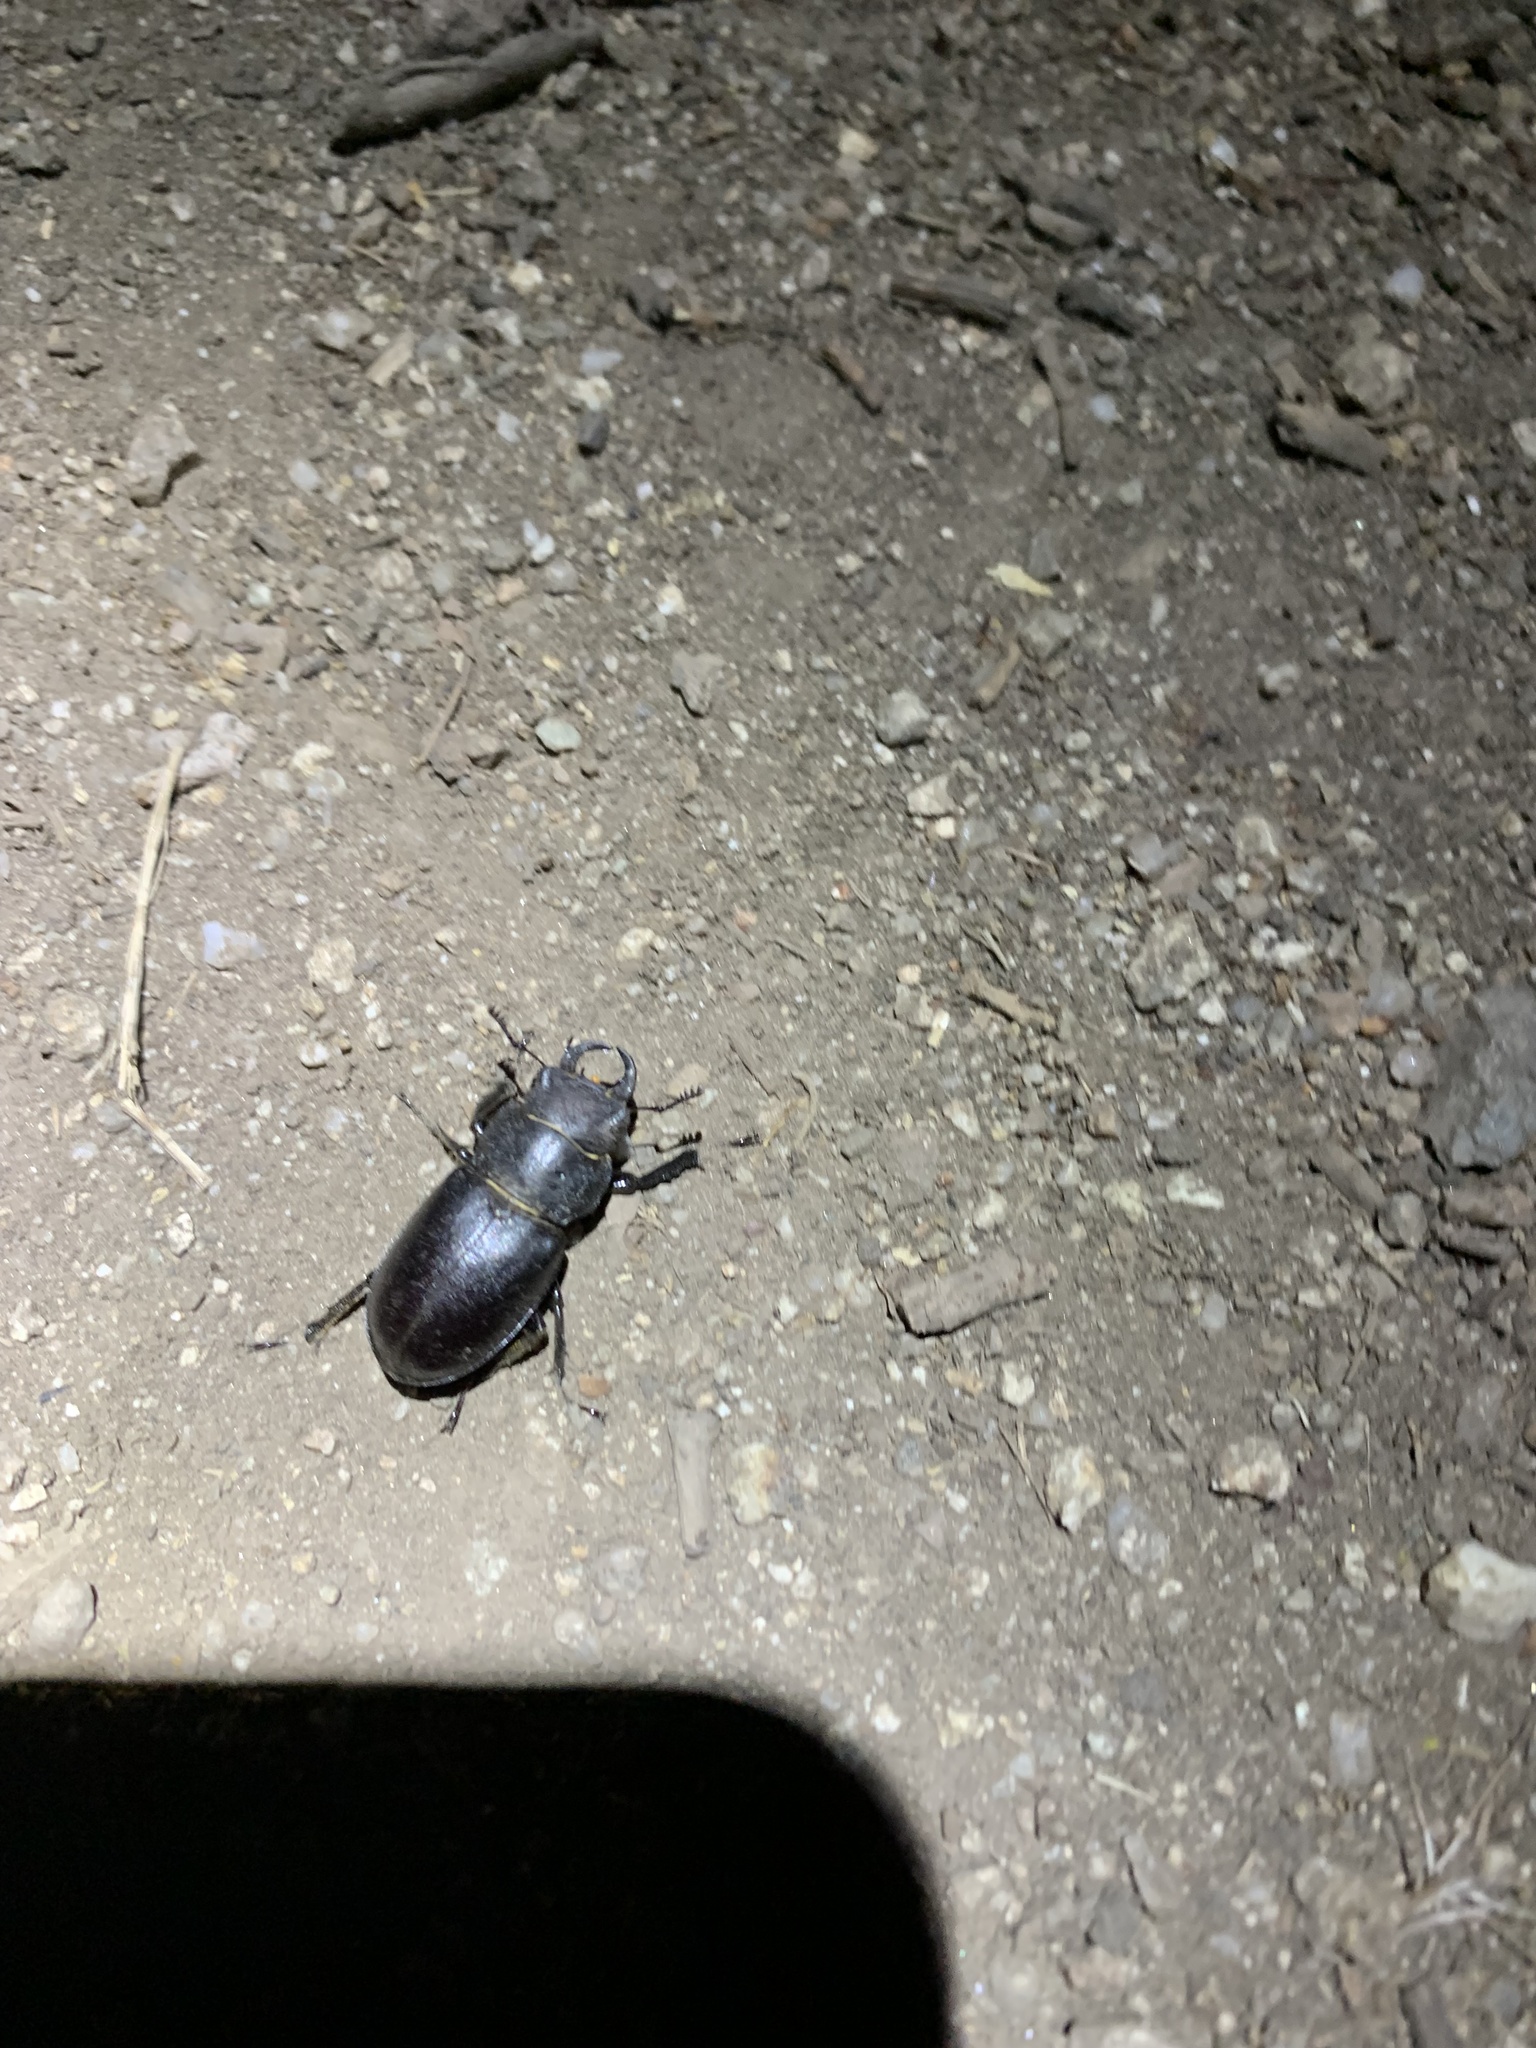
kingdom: Animalia
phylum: Arthropoda
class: Insecta
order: Coleoptera
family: Lucanidae
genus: Lucanus
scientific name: Lucanus mazama
